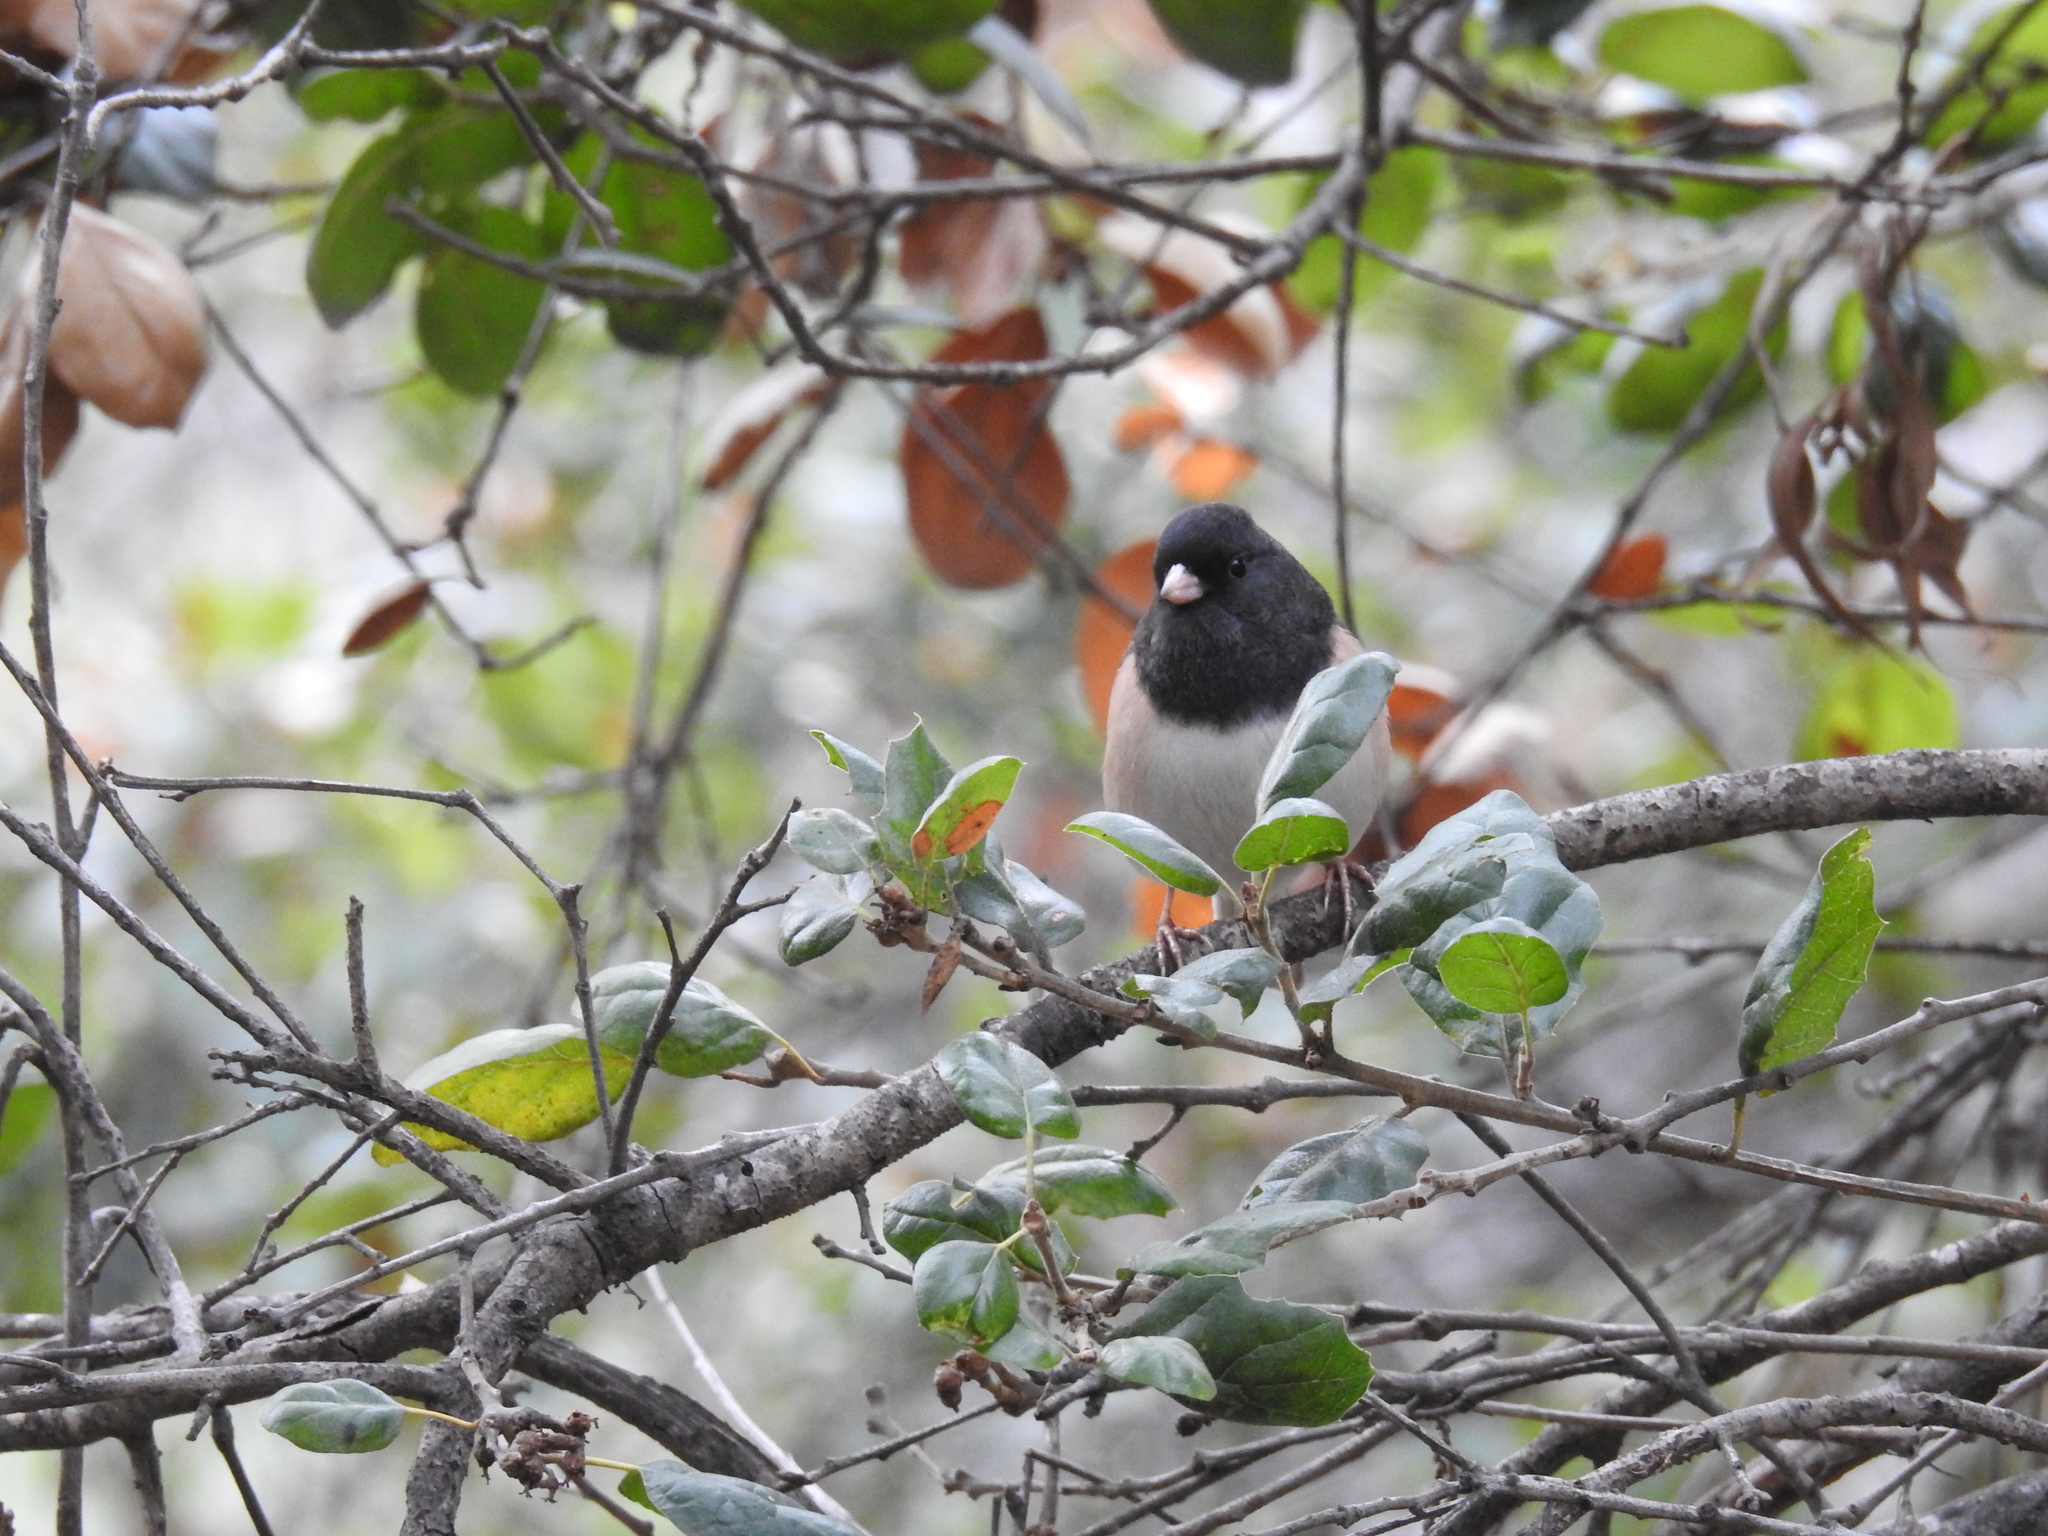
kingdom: Animalia
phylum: Chordata
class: Aves
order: Passeriformes
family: Passerellidae
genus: Junco
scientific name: Junco hyemalis
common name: Dark-eyed junco
